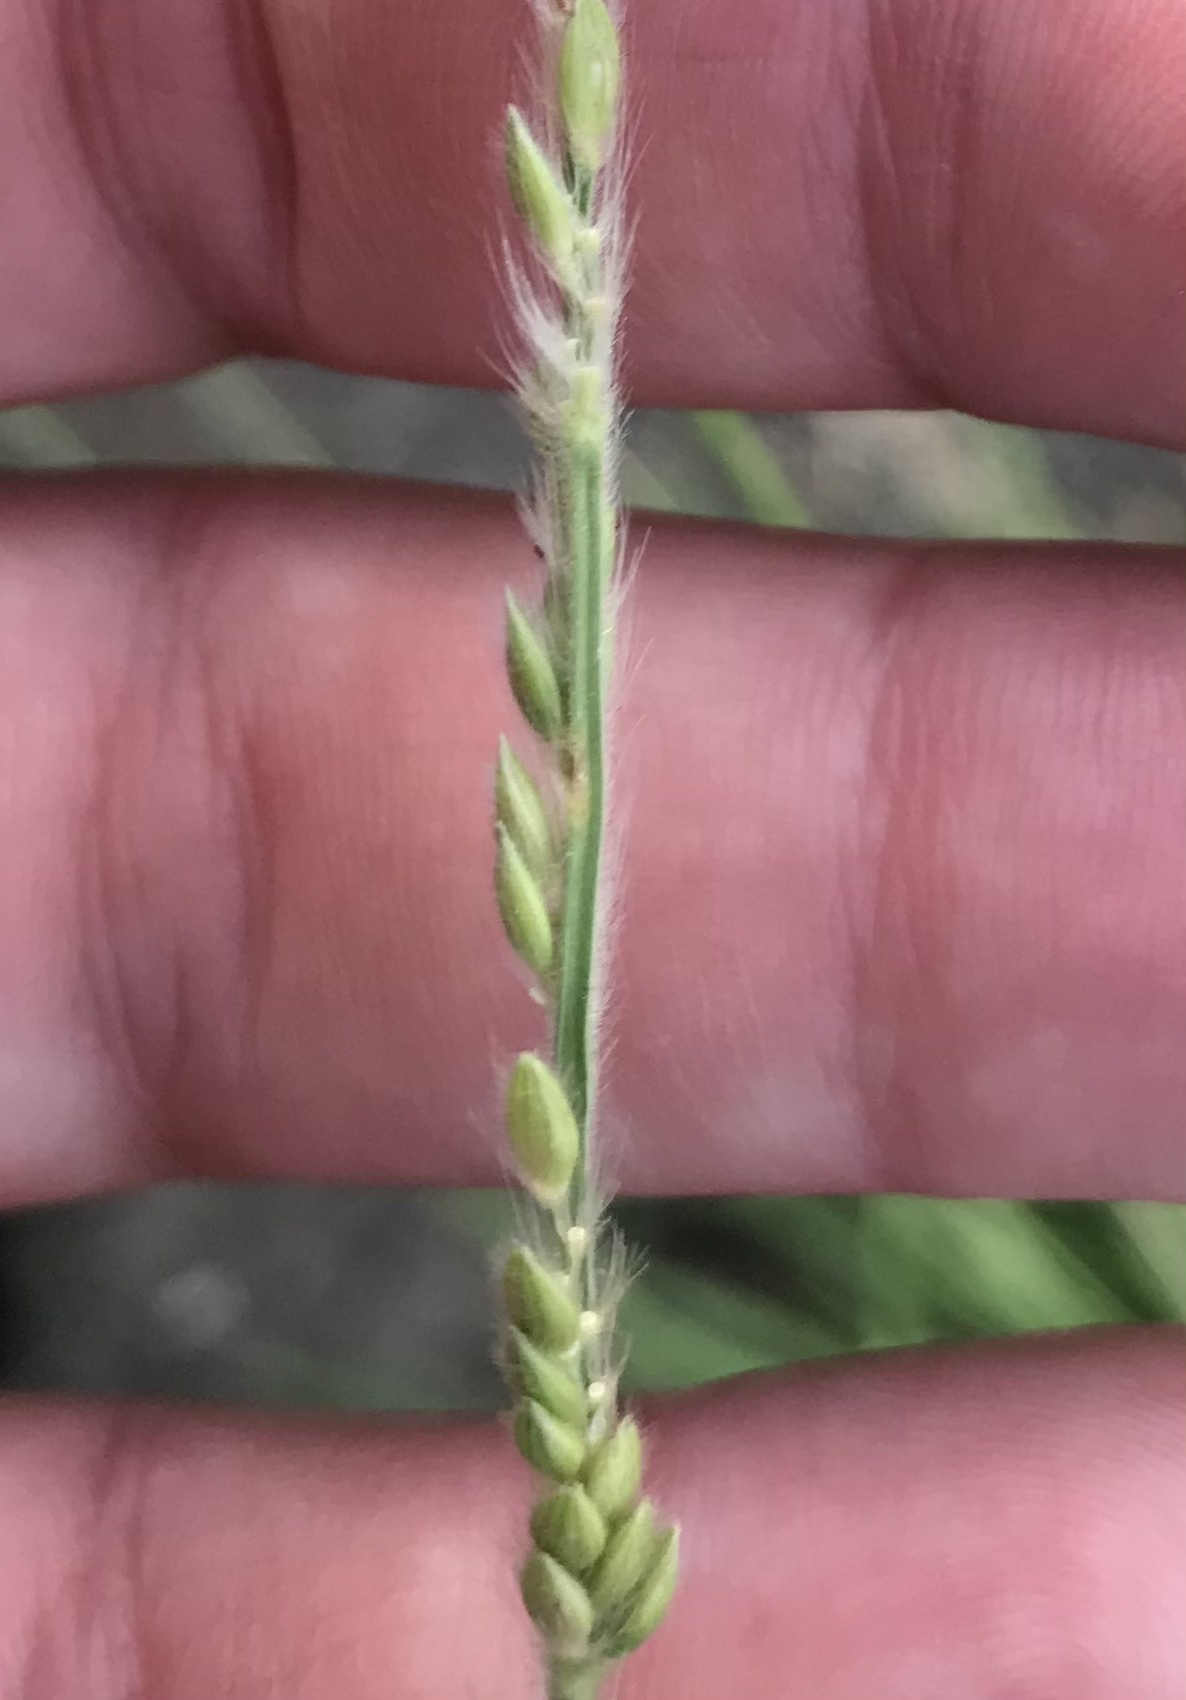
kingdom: Plantae
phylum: Tracheophyta
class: Liliopsida
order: Poales
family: Poaceae
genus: Eriochloa
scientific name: Eriochloa sericea
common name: Texas cup grass
